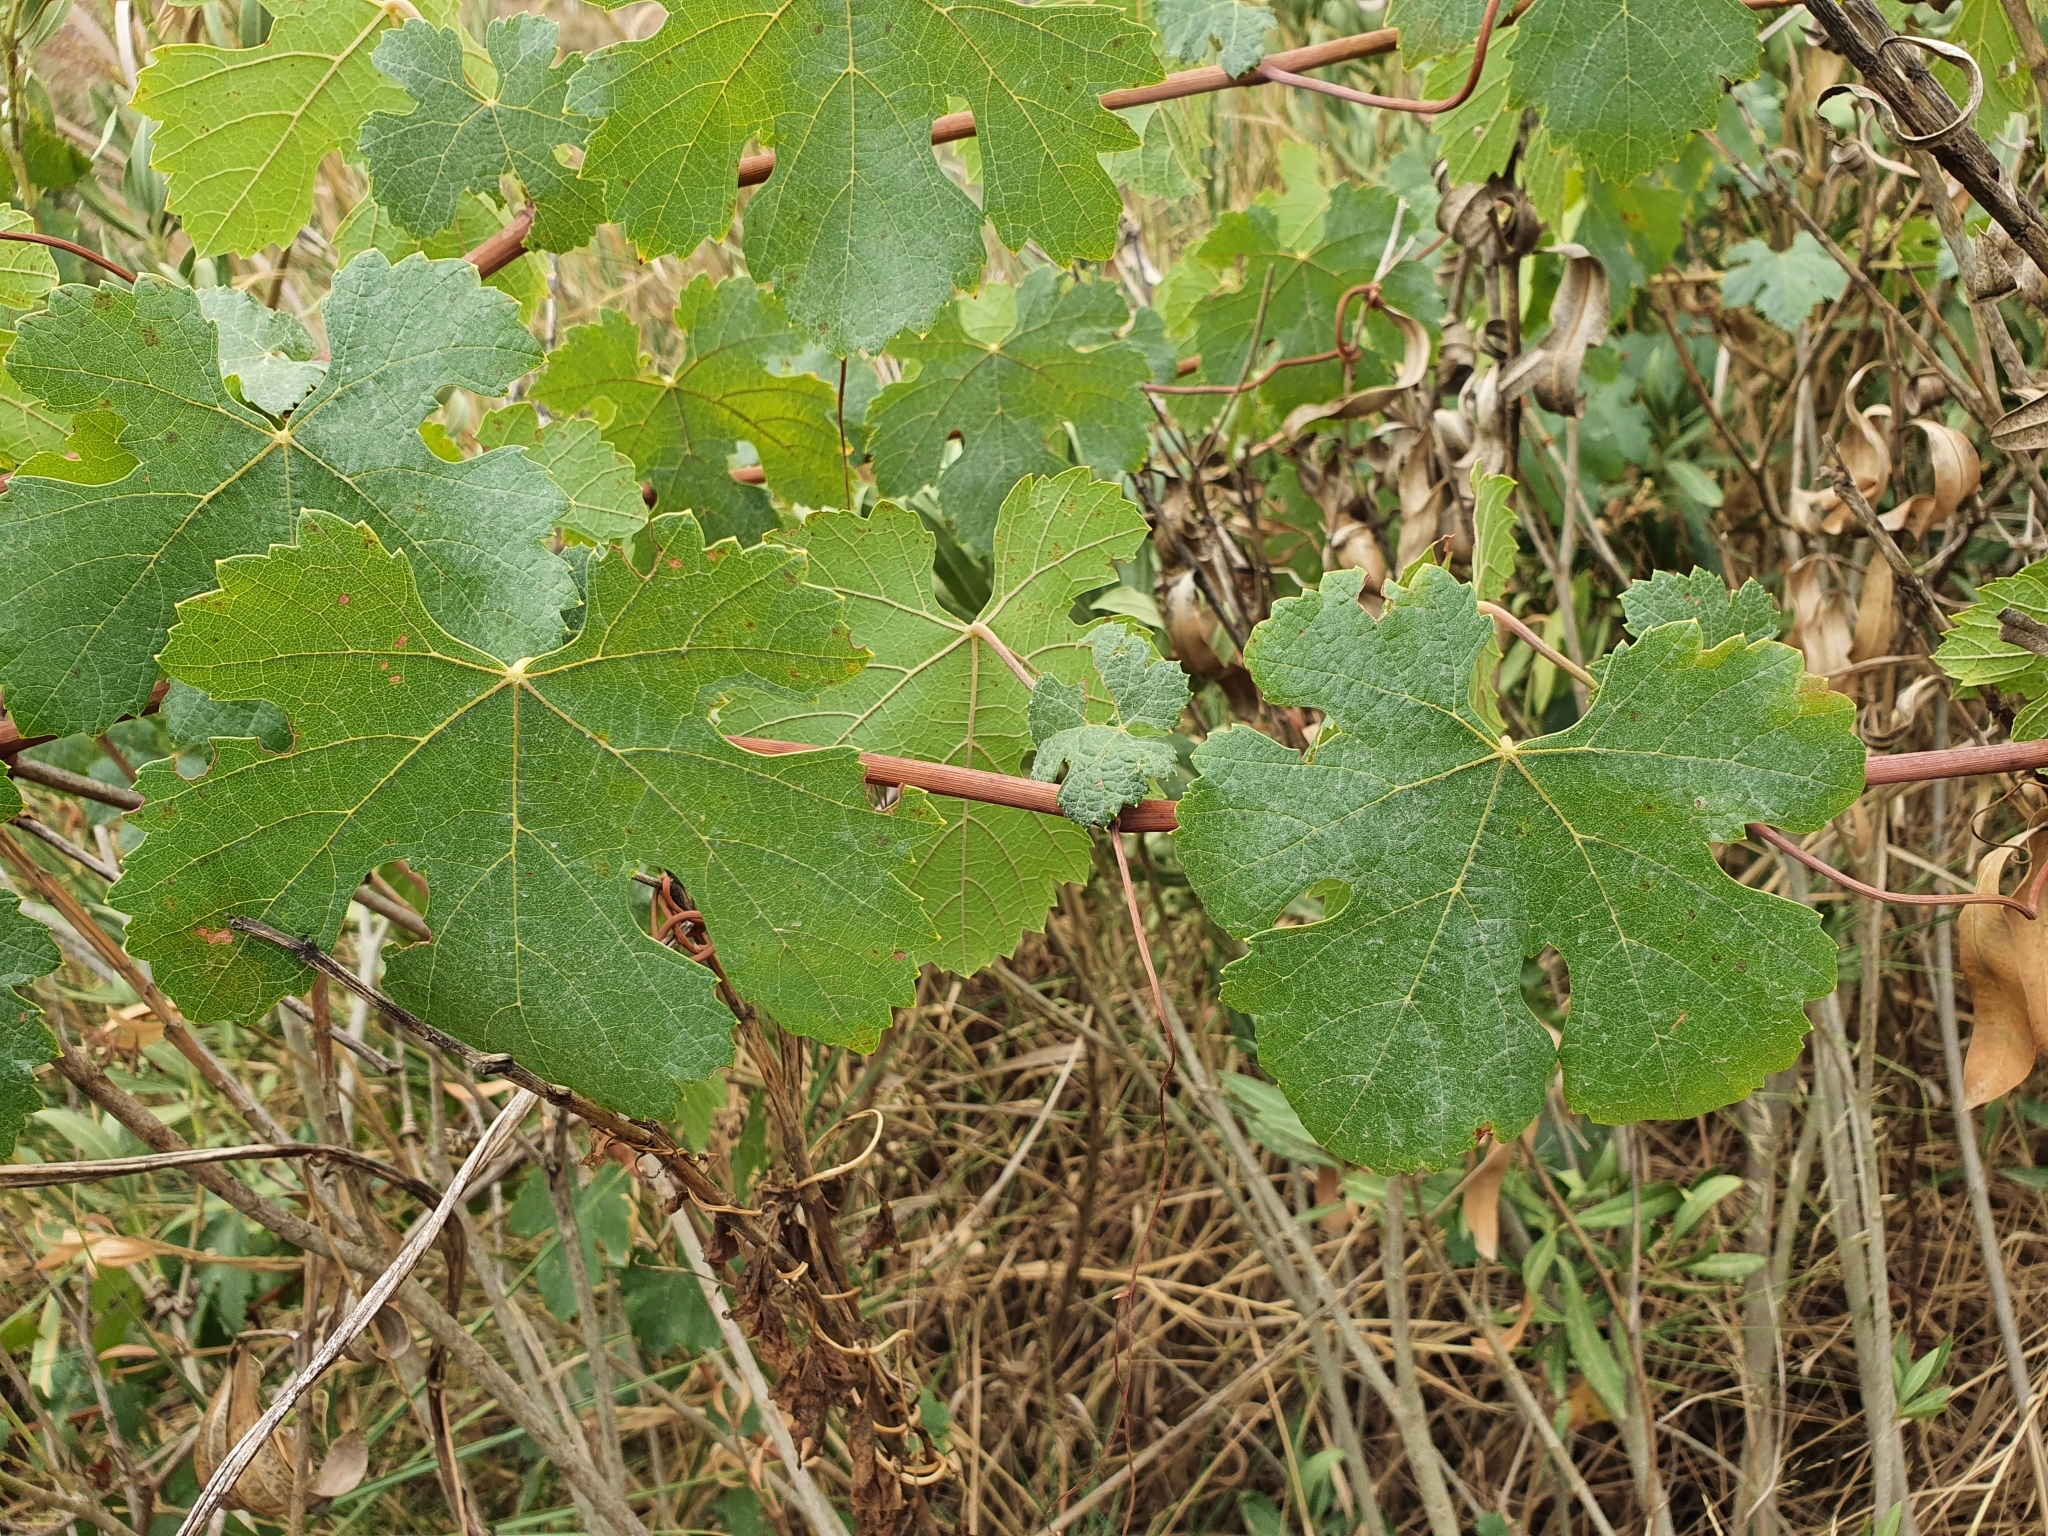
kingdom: Plantae
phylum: Tracheophyta
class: Magnoliopsida
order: Vitales
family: Vitaceae
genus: Vitis
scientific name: Vitis vinifera
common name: Grape-vine
